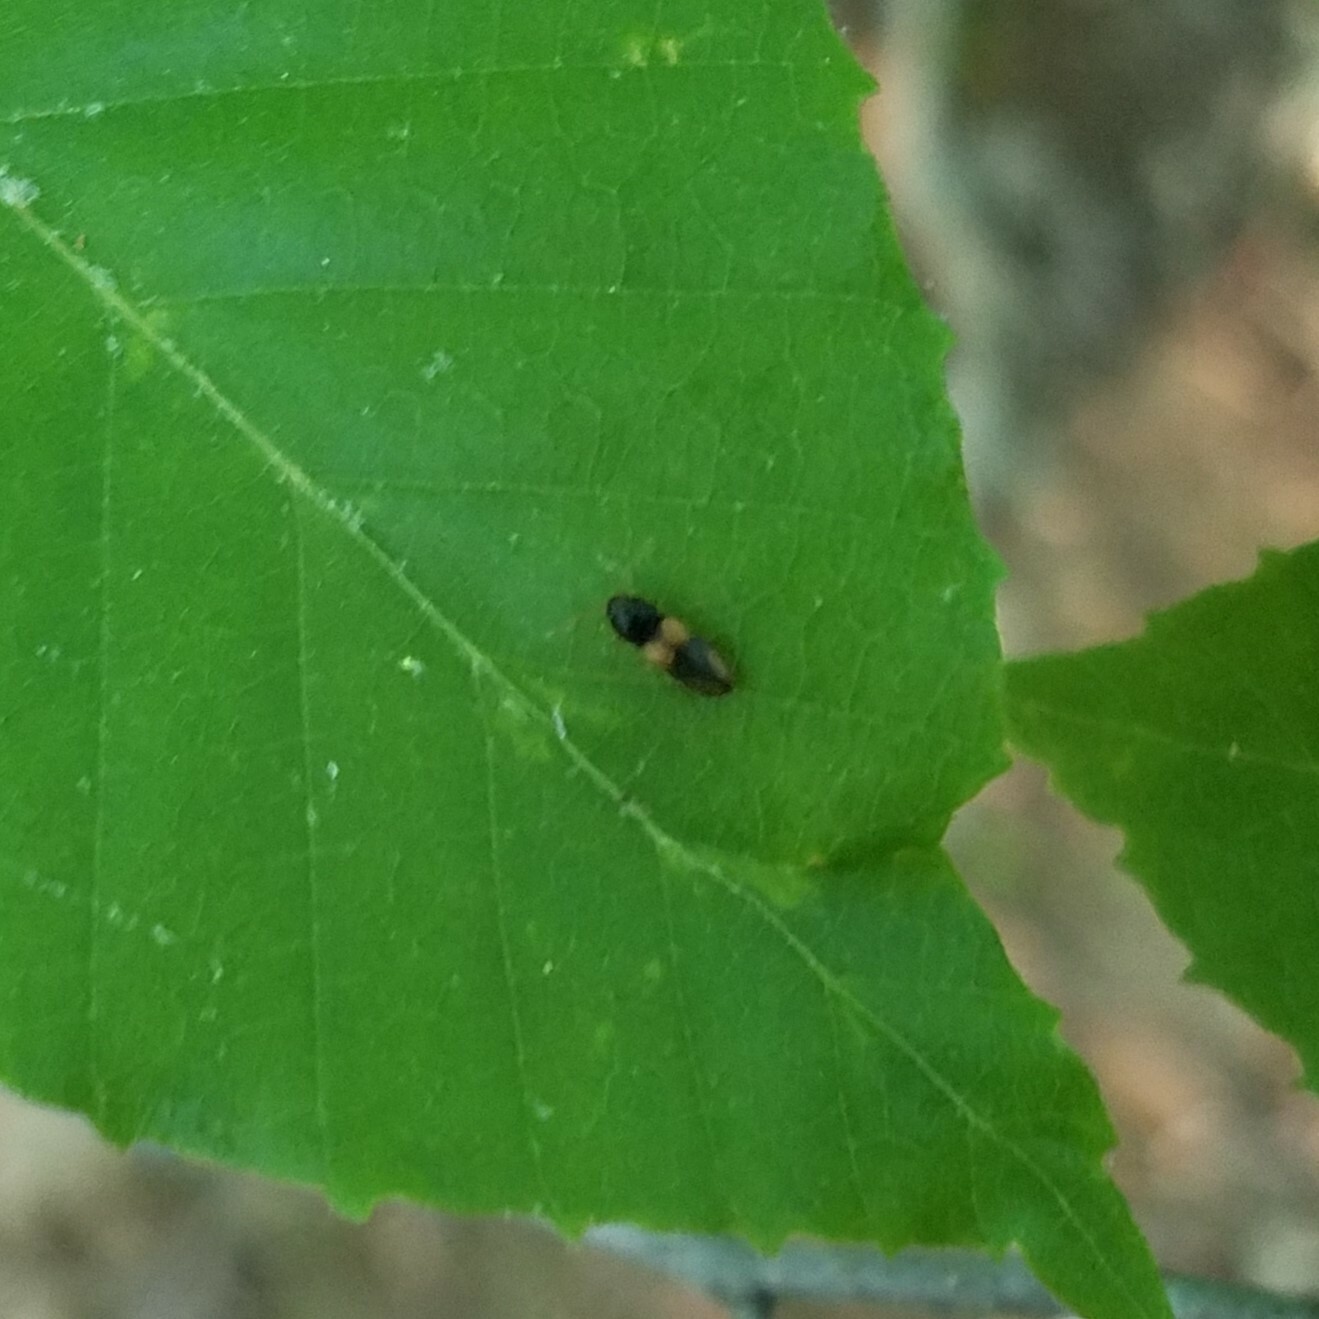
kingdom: Animalia
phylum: Arthropoda
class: Insecta
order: Coleoptera
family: Elateridae
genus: Horistonotus
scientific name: Horistonotus curiatus
